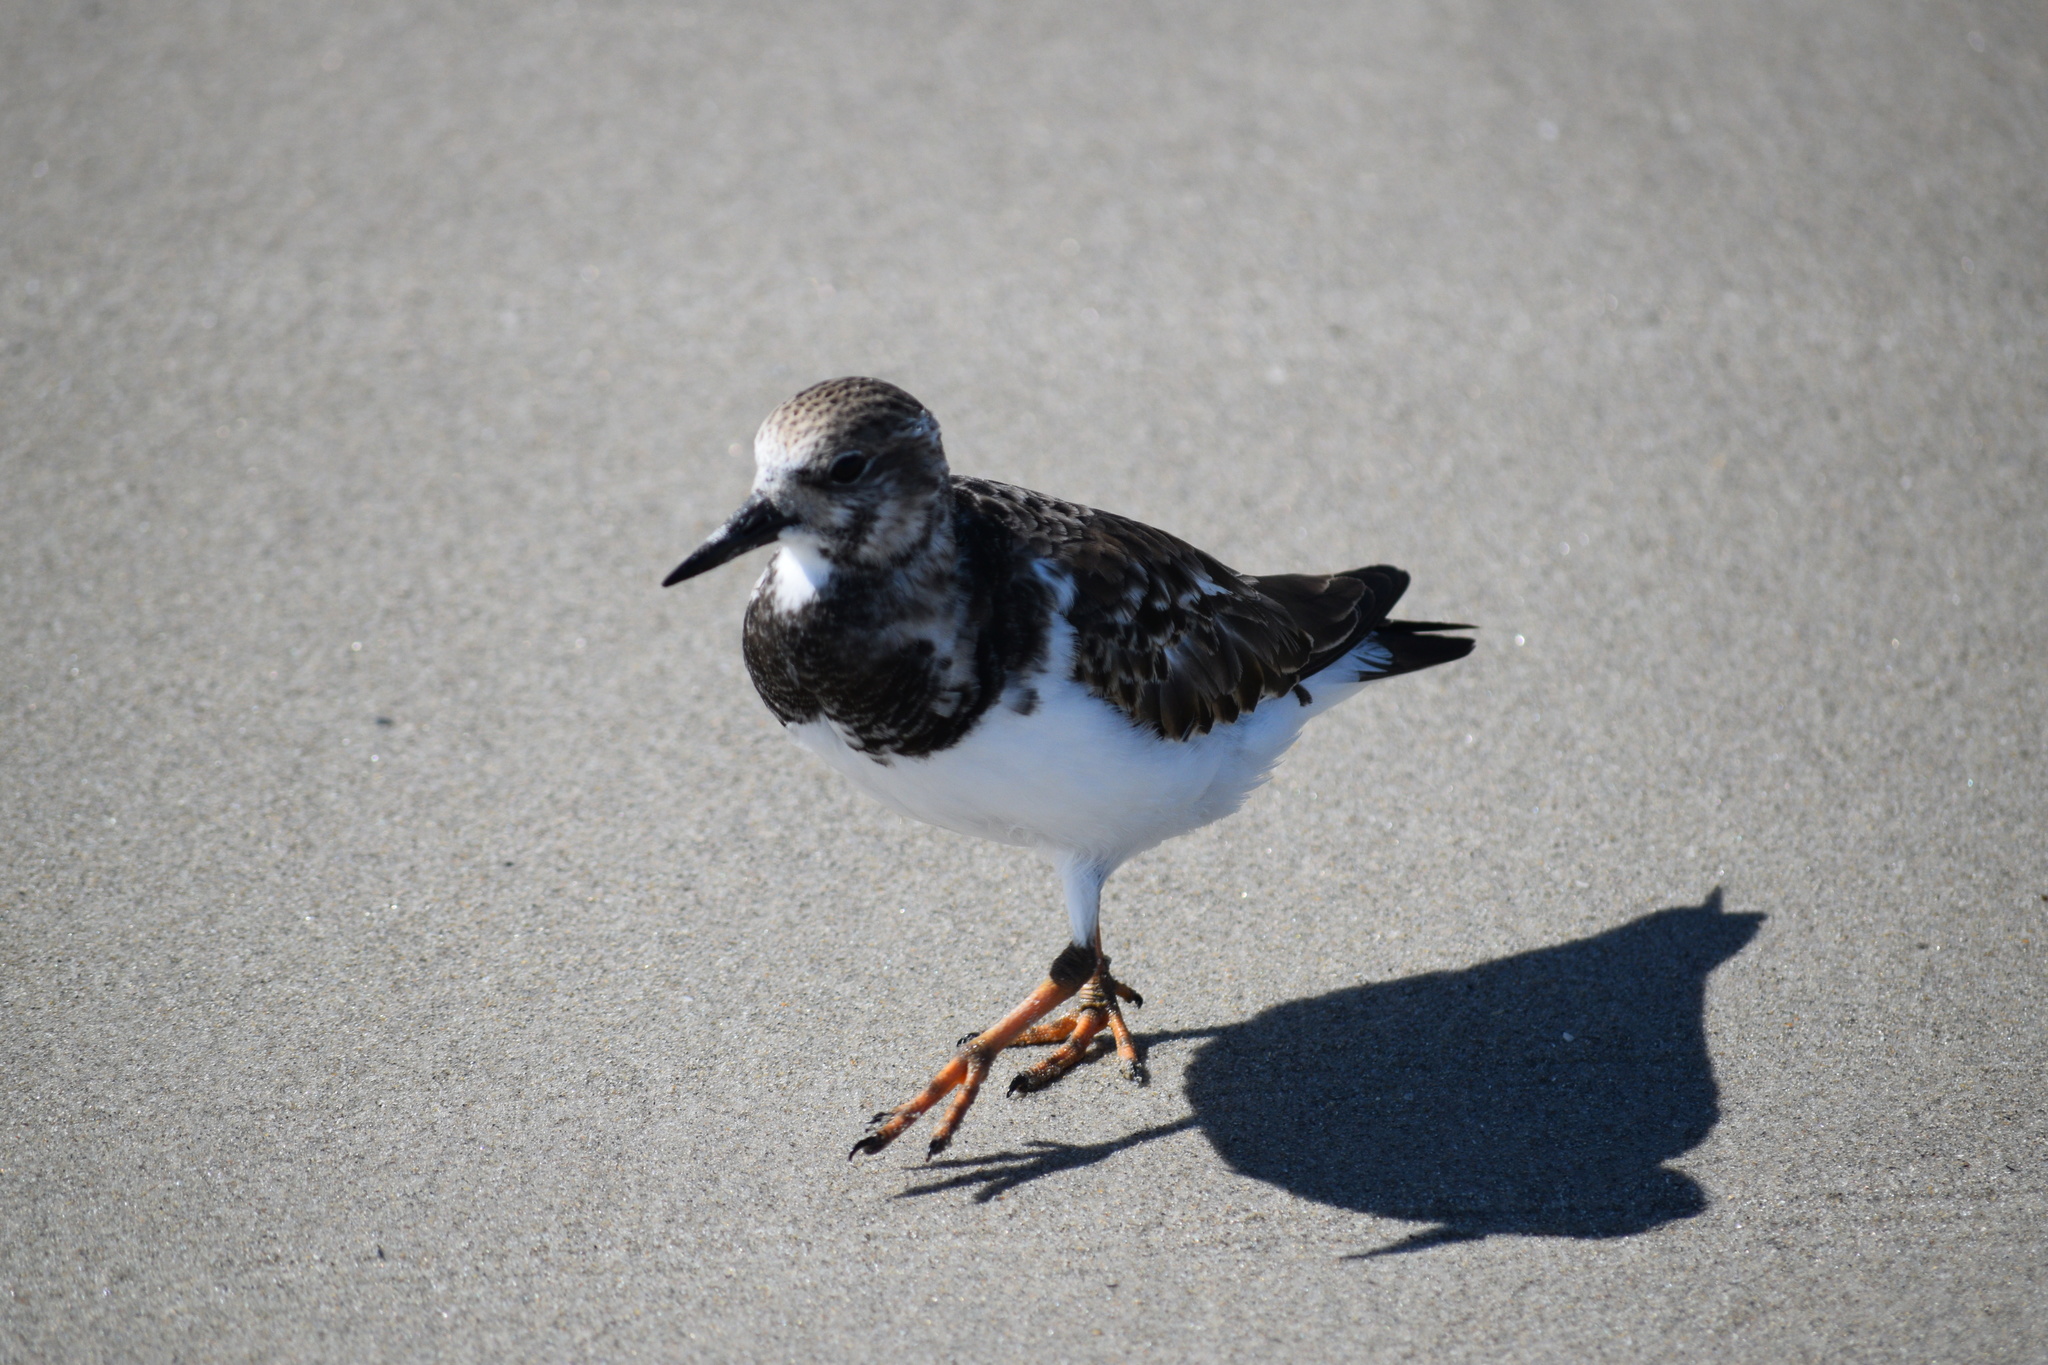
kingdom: Animalia
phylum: Chordata
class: Aves
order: Charadriiformes
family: Scolopacidae
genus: Arenaria
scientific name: Arenaria interpres
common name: Ruddy turnstone
